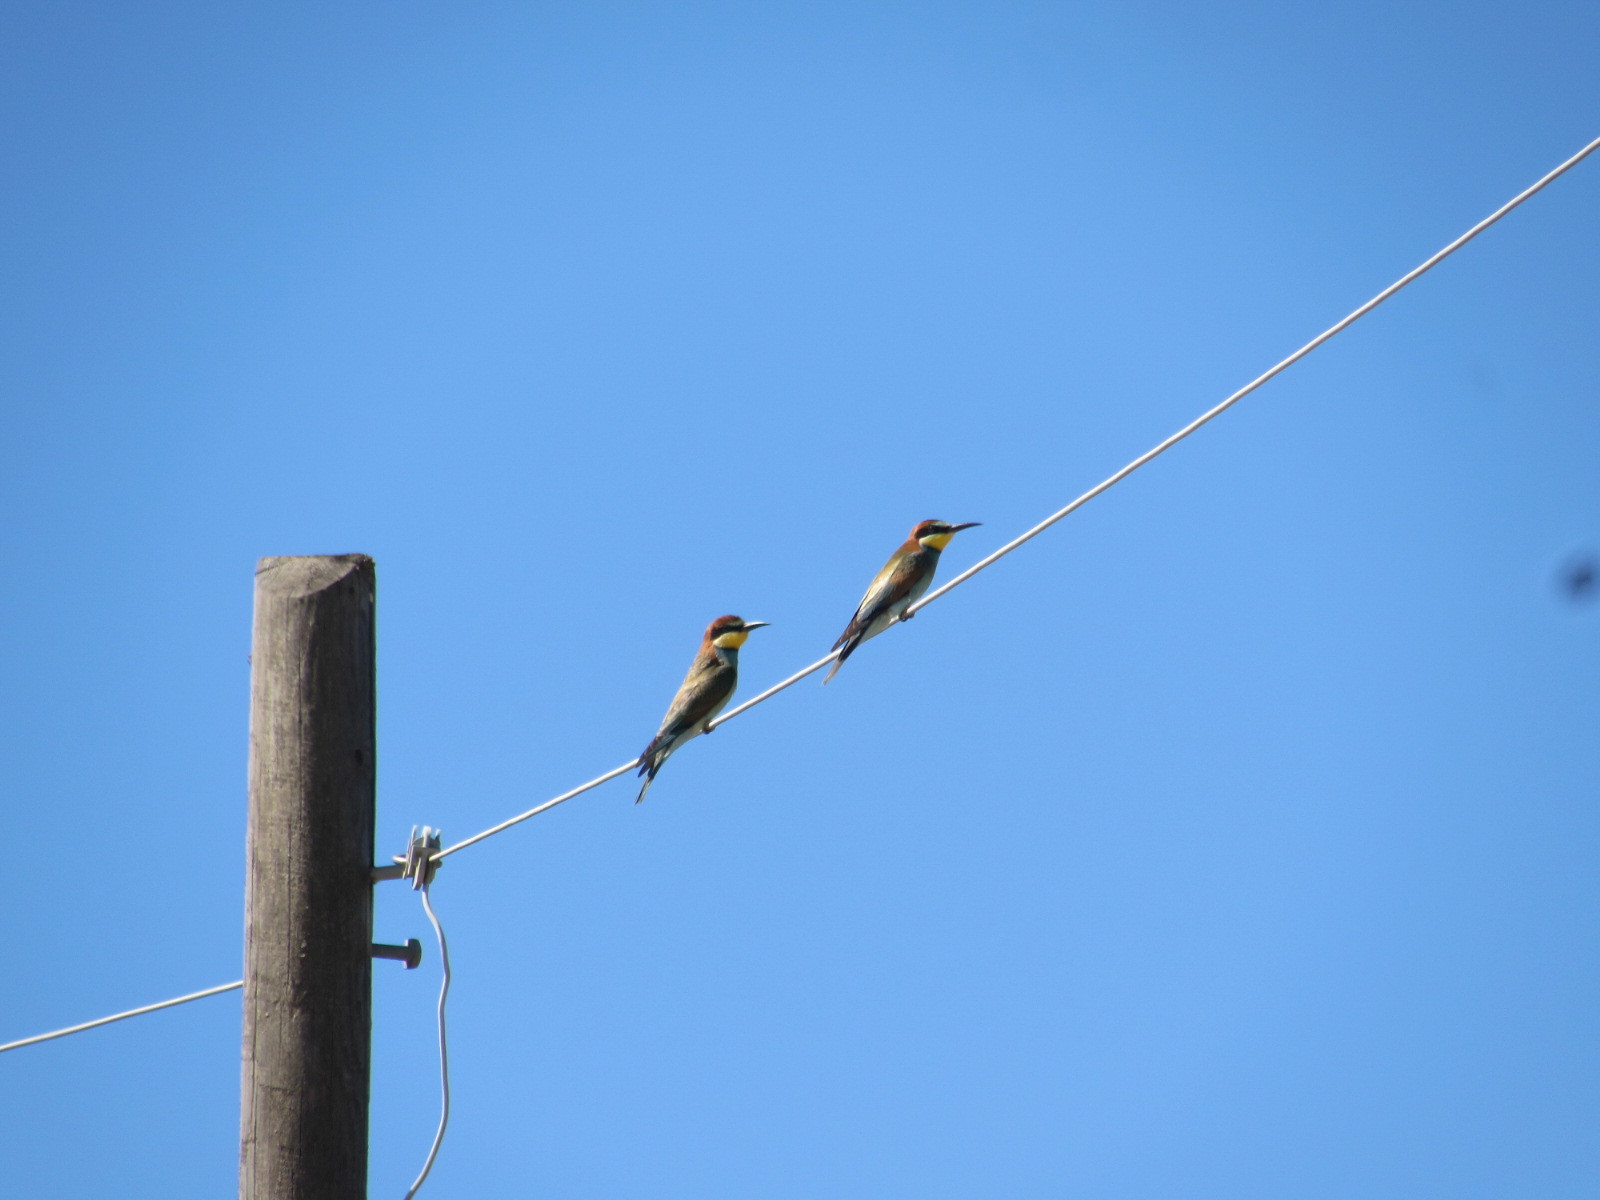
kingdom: Animalia
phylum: Chordata
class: Aves
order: Coraciiformes
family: Meropidae
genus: Merops
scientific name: Merops apiaster
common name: European bee-eater
